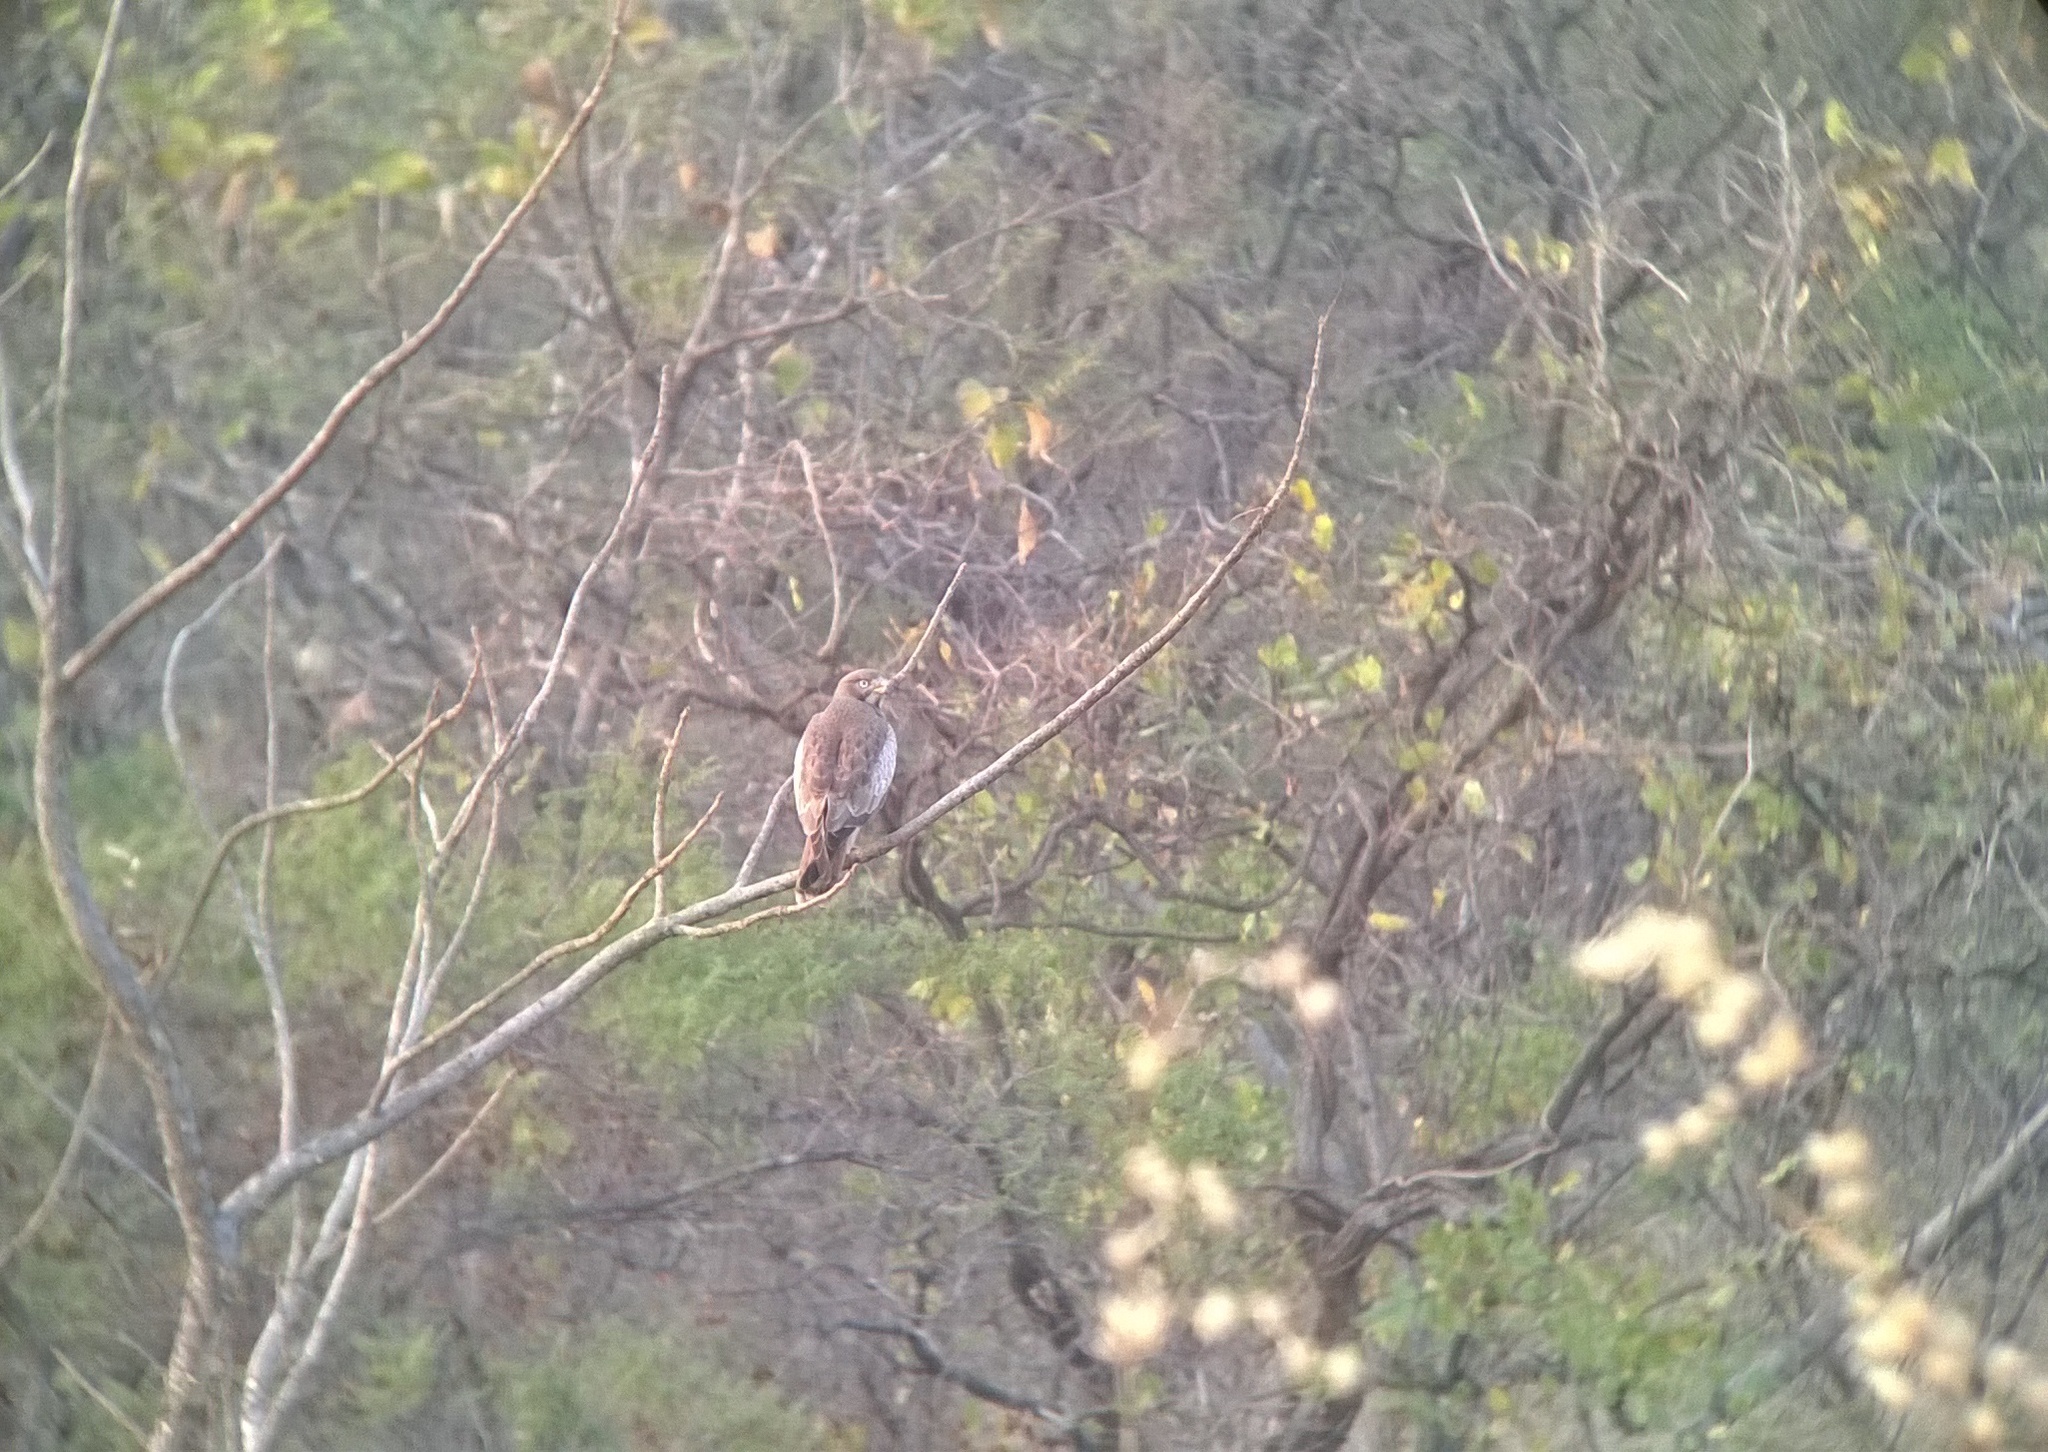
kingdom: Animalia
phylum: Chordata
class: Aves
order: Accipitriformes
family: Accipitridae
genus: Butastur
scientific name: Butastur teesa
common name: White-eyed buzzard
